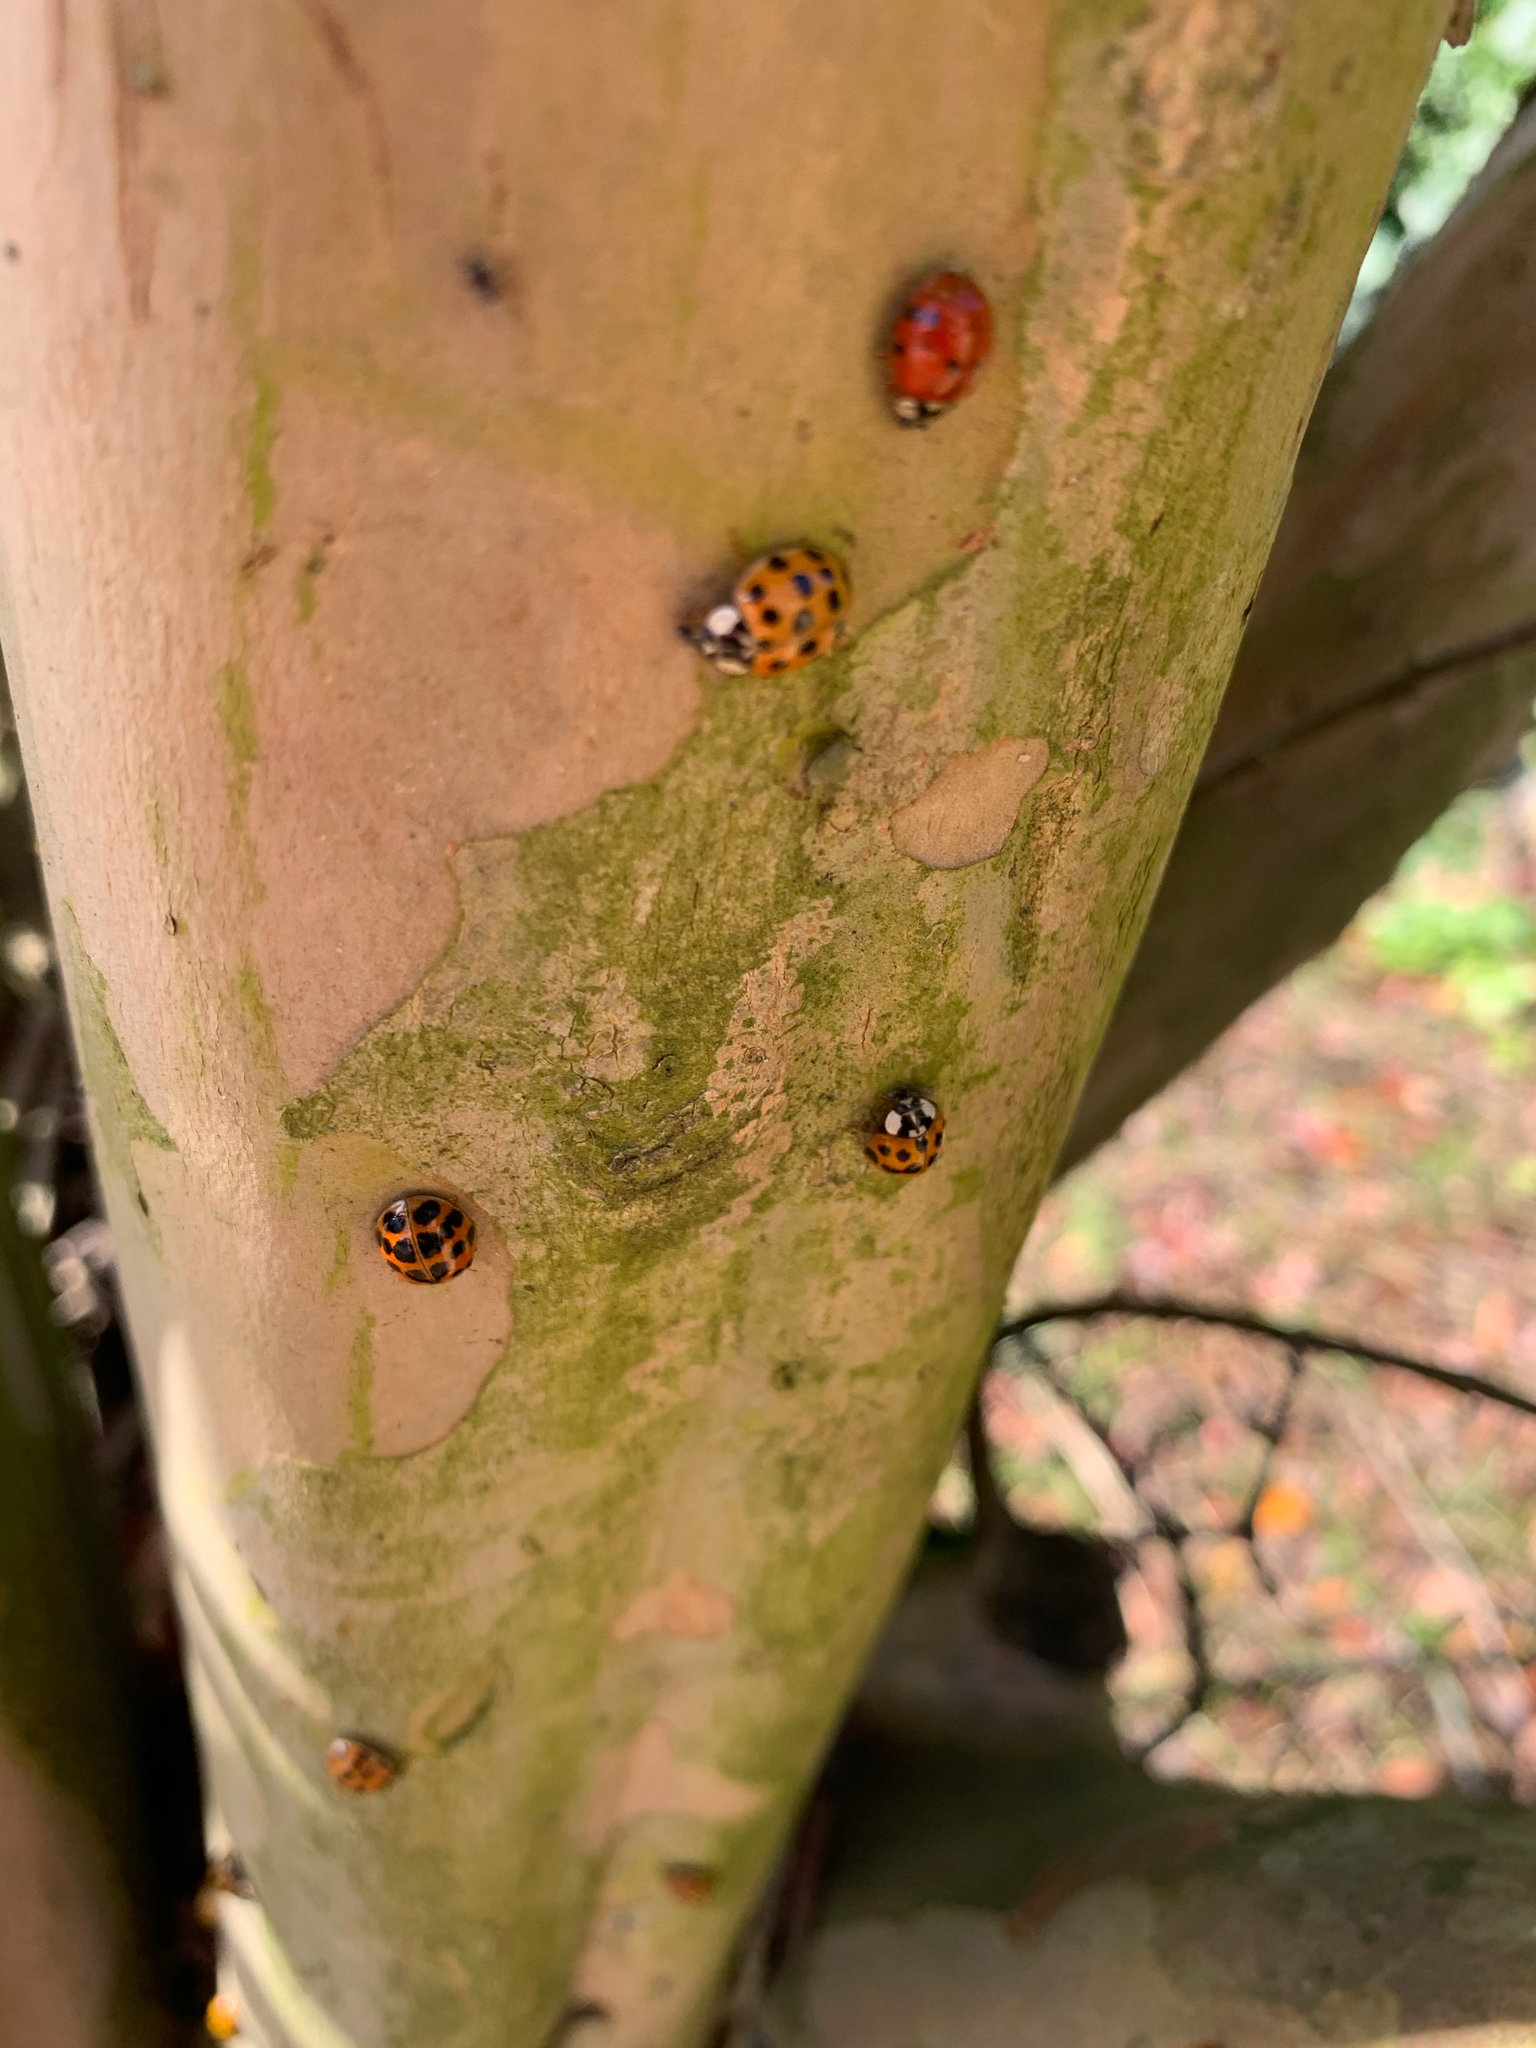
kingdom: Animalia
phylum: Arthropoda
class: Insecta
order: Coleoptera
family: Coccinellidae
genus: Harmonia
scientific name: Harmonia axyridis
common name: Harlequin ladybird
